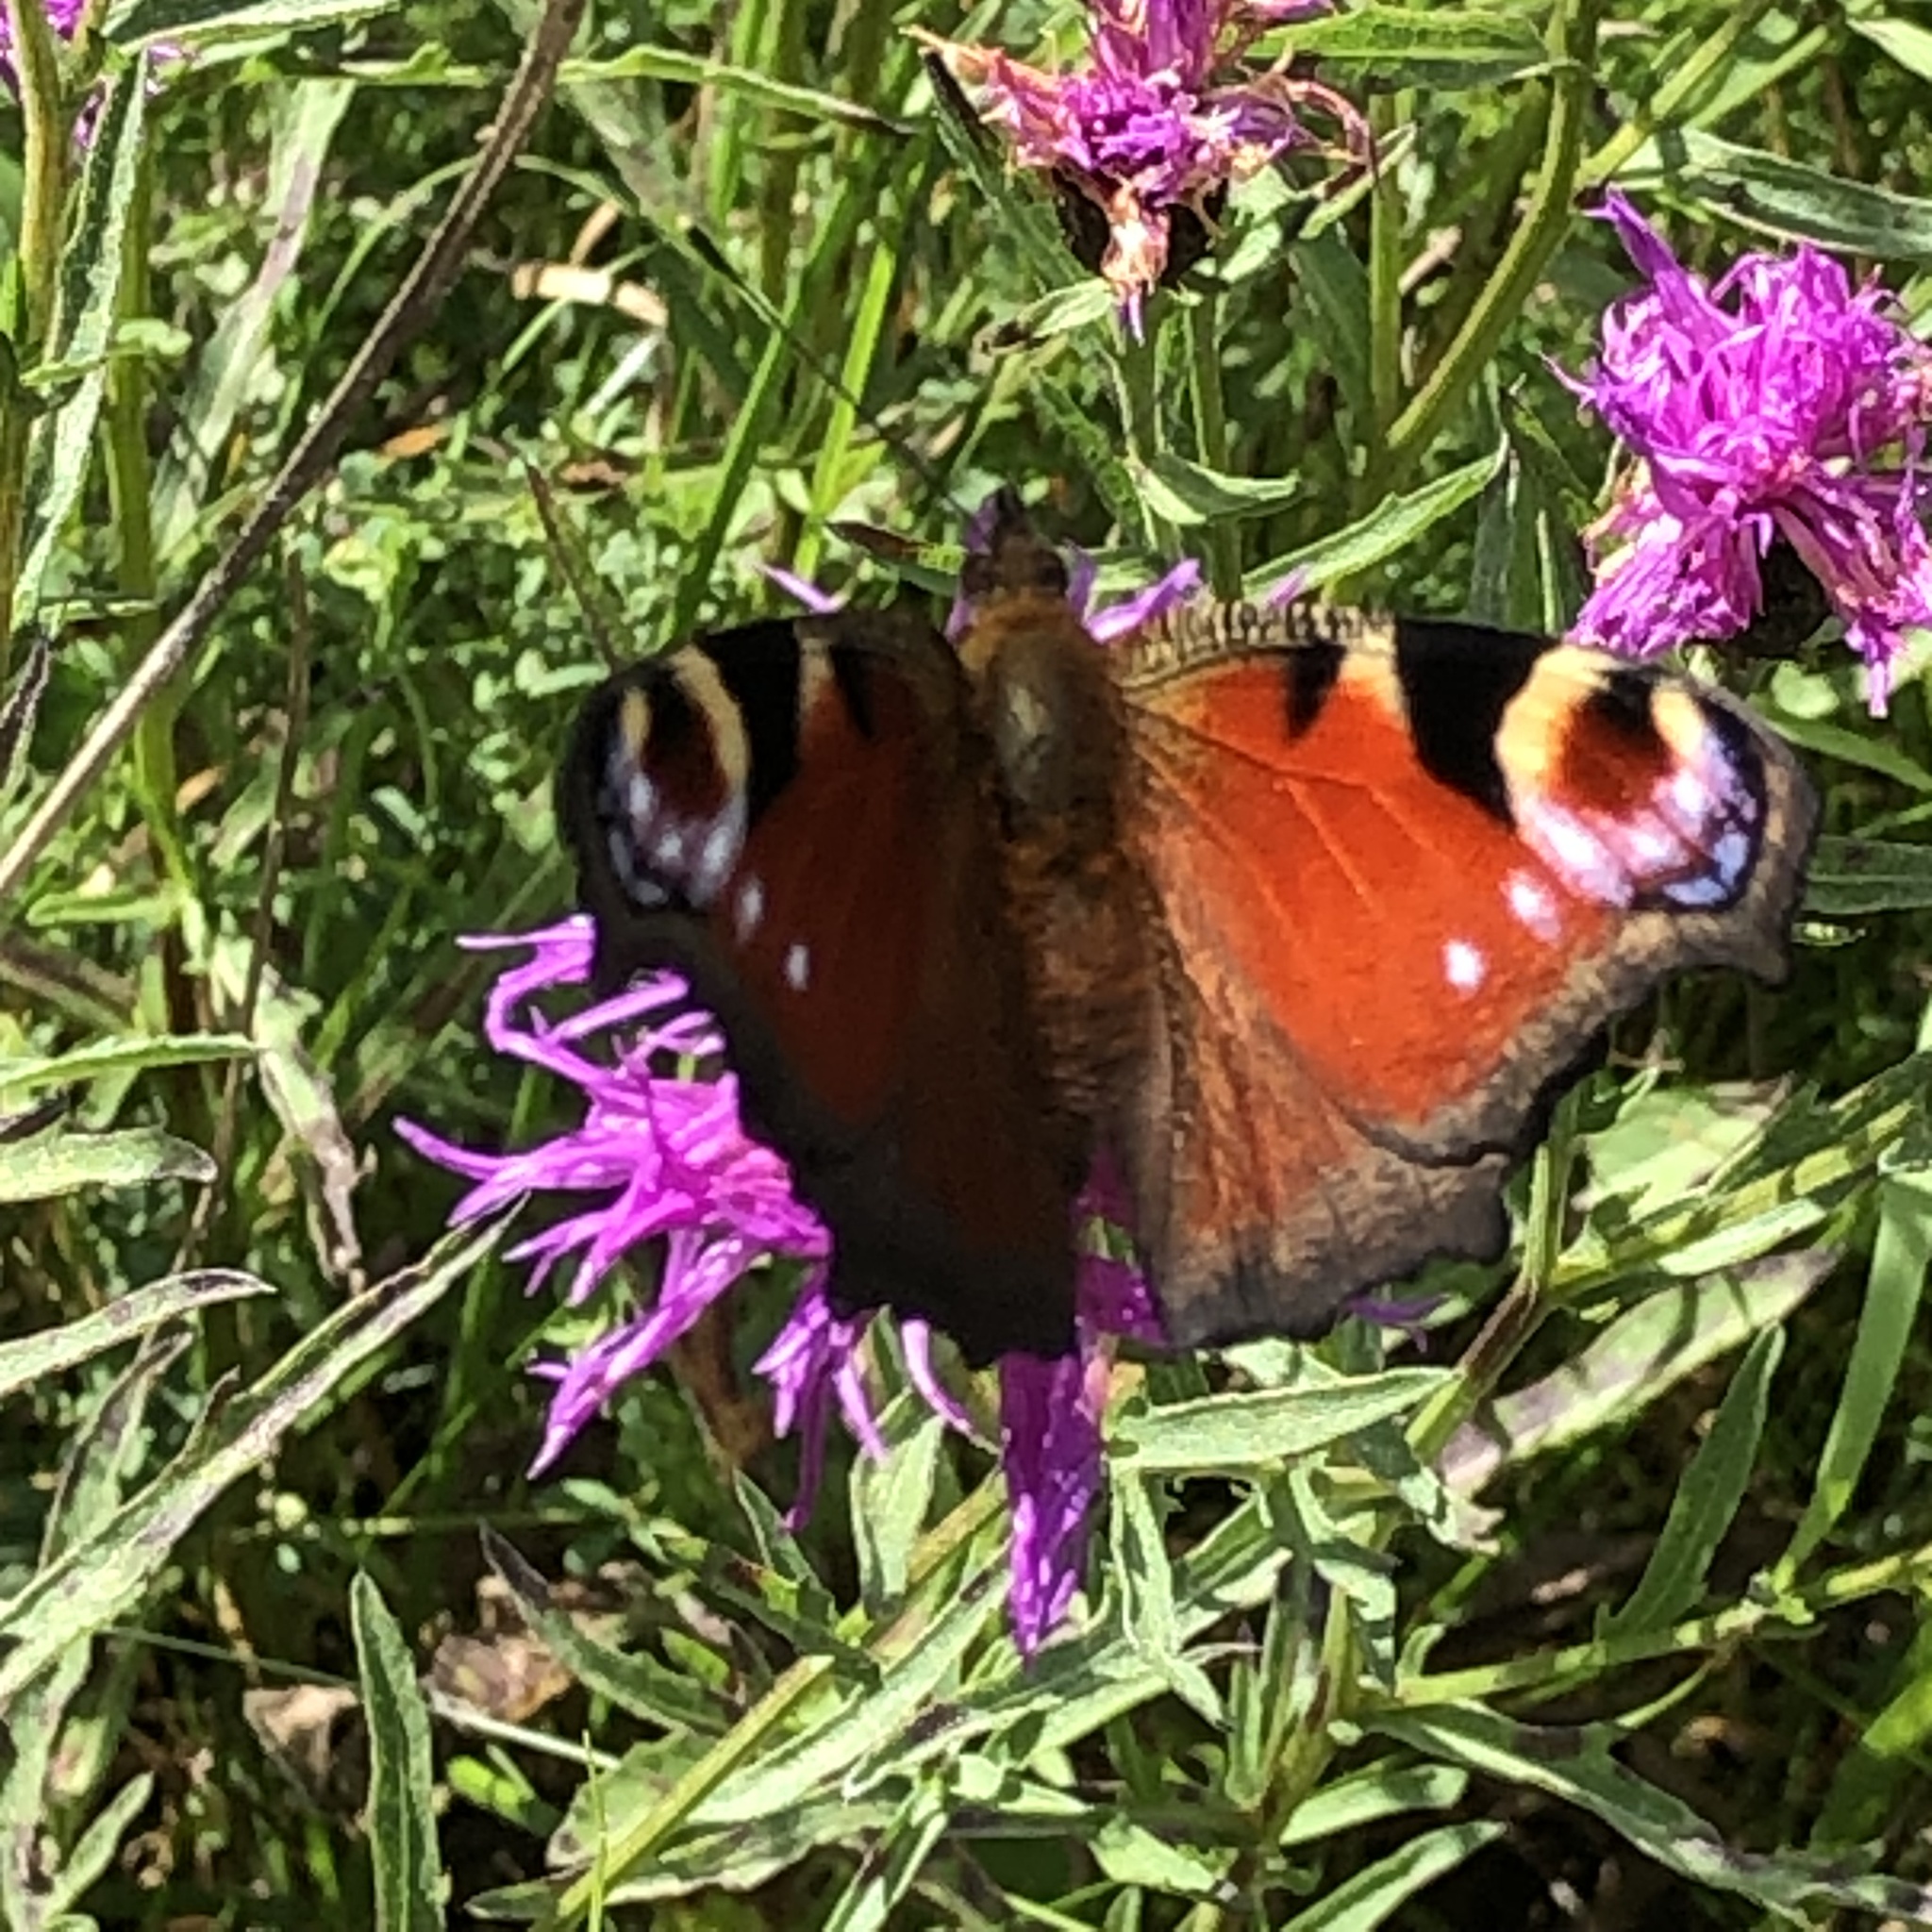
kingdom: Animalia
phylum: Arthropoda
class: Insecta
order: Lepidoptera
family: Nymphalidae
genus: Aglais
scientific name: Aglais io
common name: Peacock
